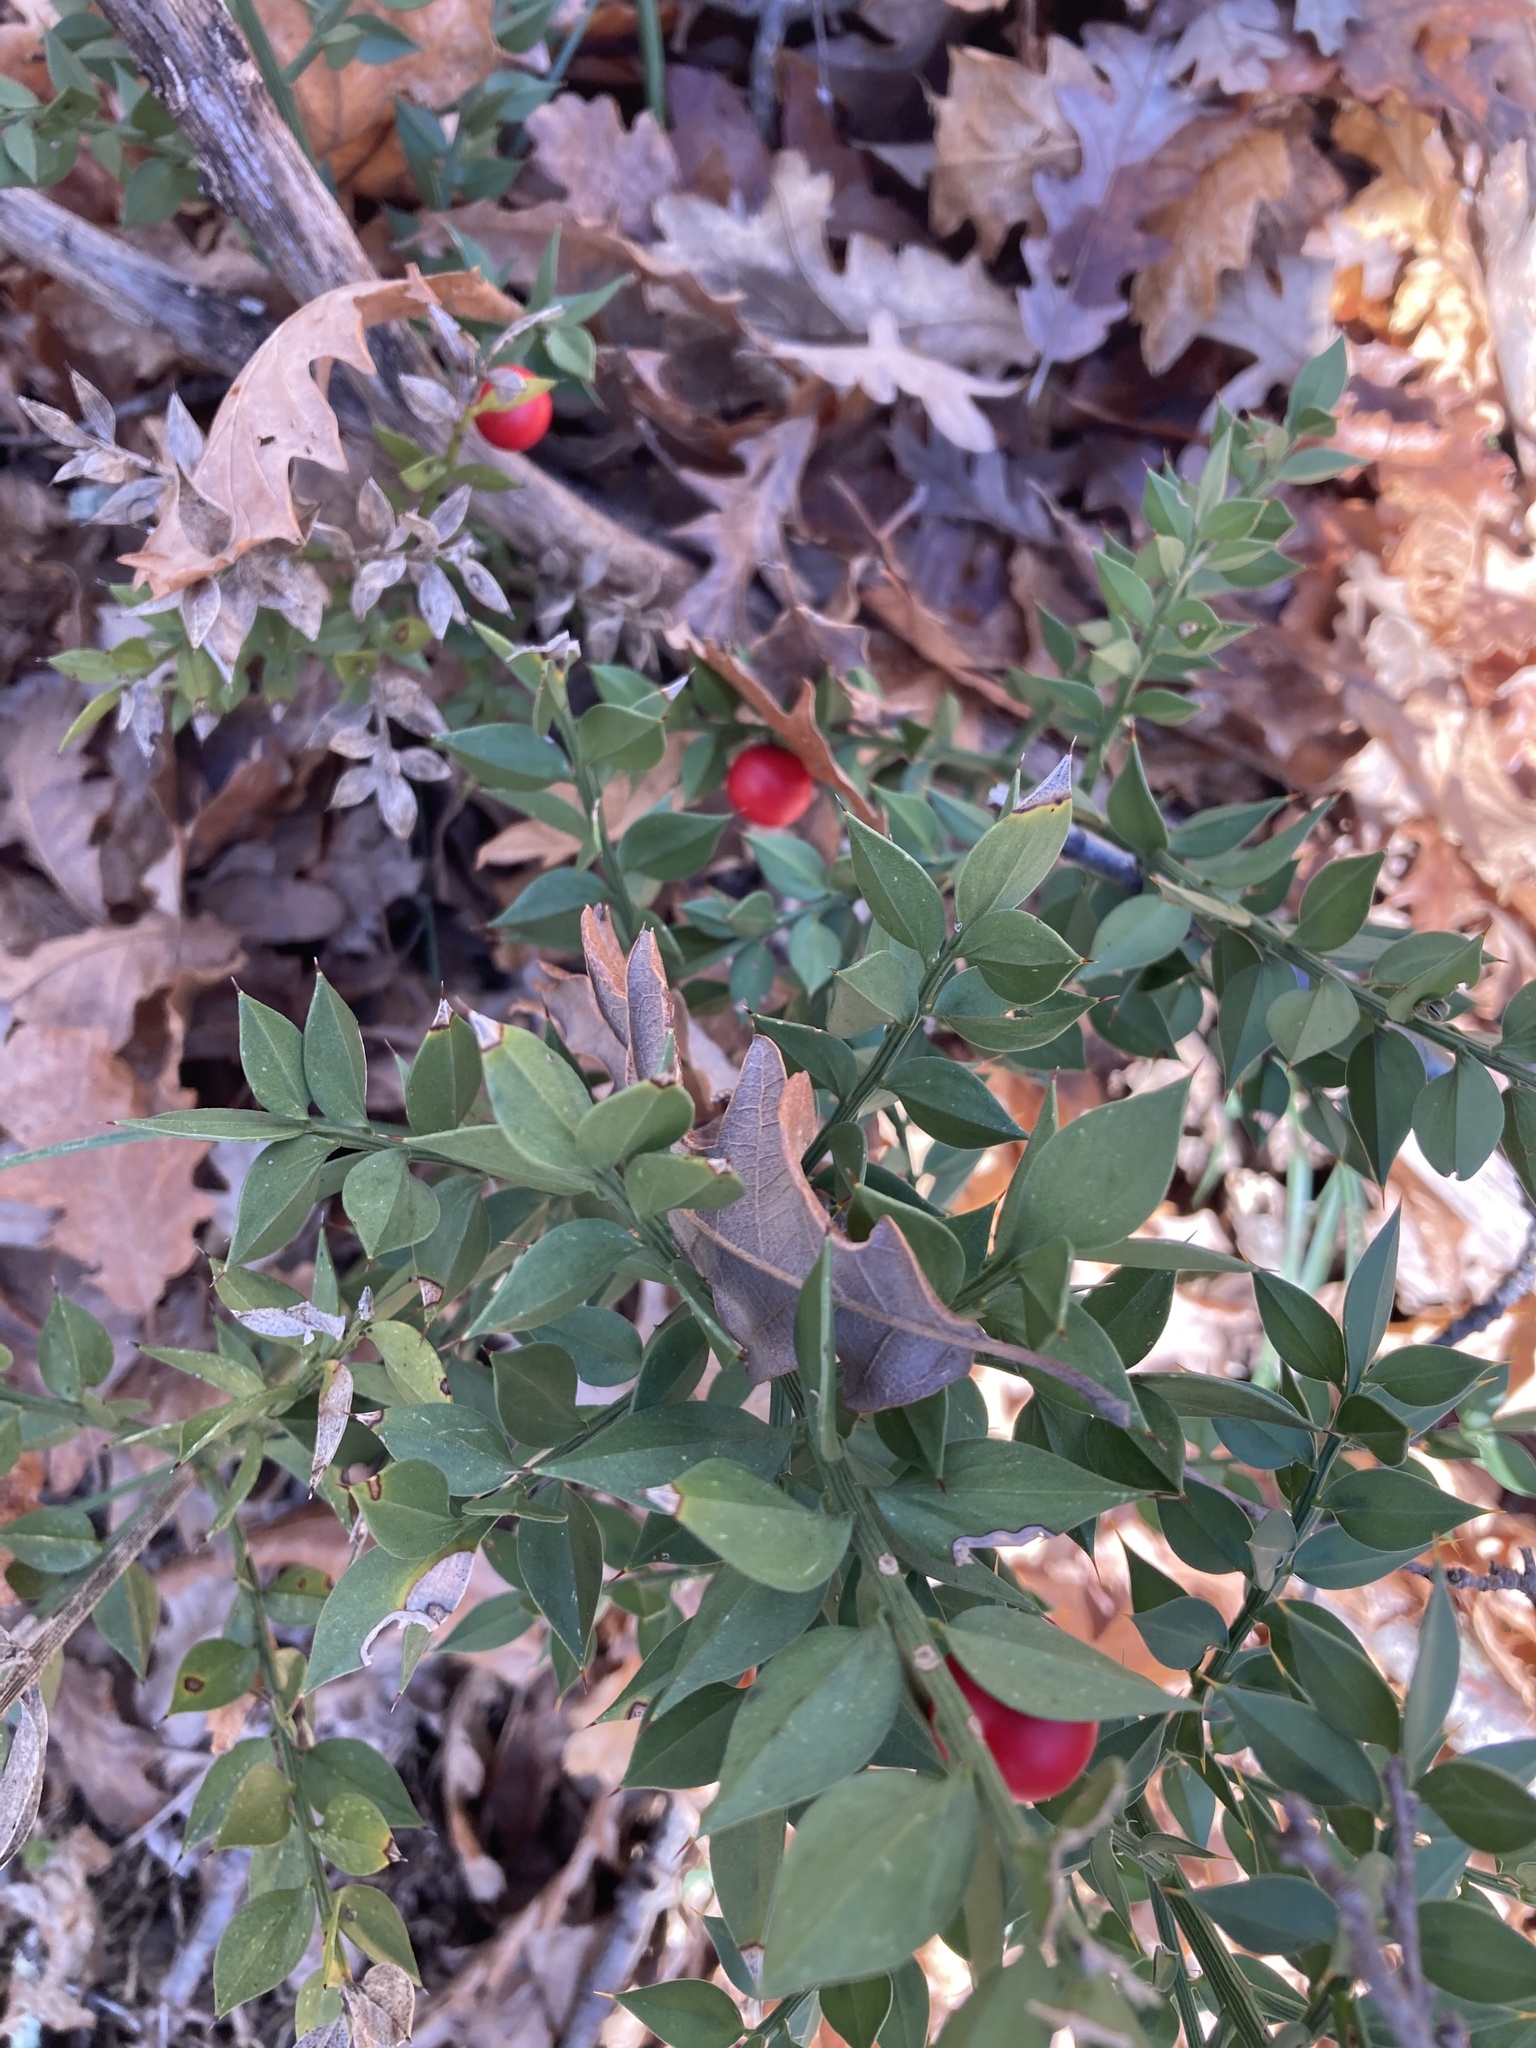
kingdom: Plantae
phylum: Tracheophyta
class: Liliopsida
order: Asparagales
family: Asparagaceae
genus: Ruscus
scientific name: Ruscus aculeatus
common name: Butcher's-broom
